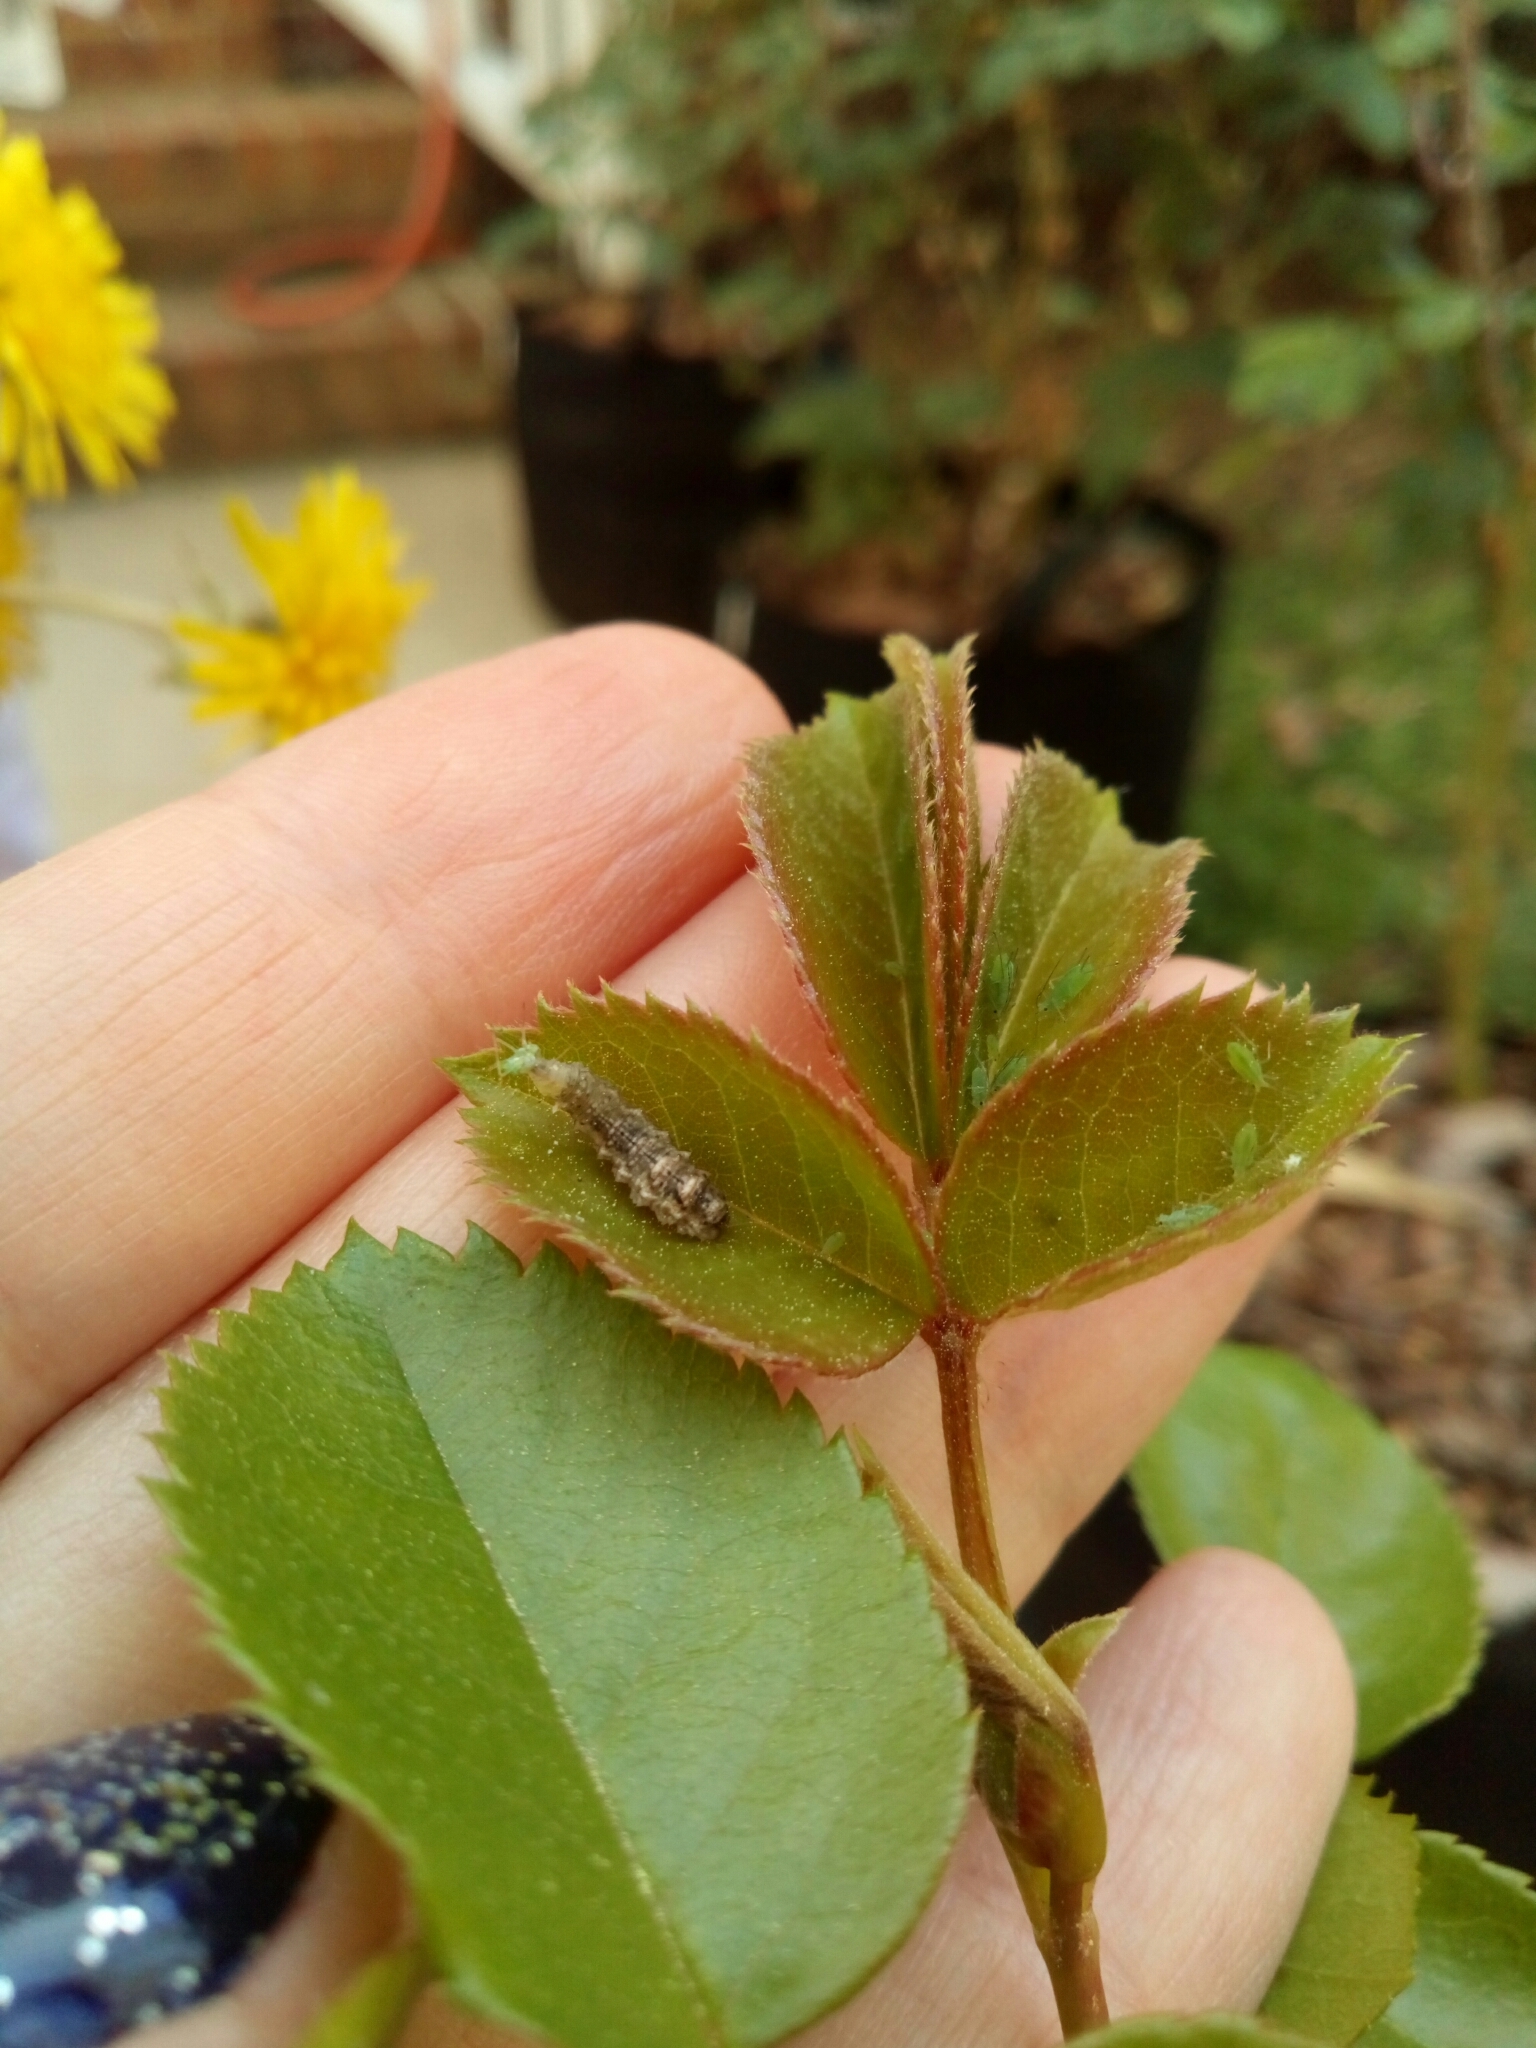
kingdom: Animalia
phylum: Arthropoda
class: Insecta
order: Diptera
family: Syrphidae
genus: Eupeodes
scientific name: Eupeodes americanus
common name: Long-tailed aphideater
